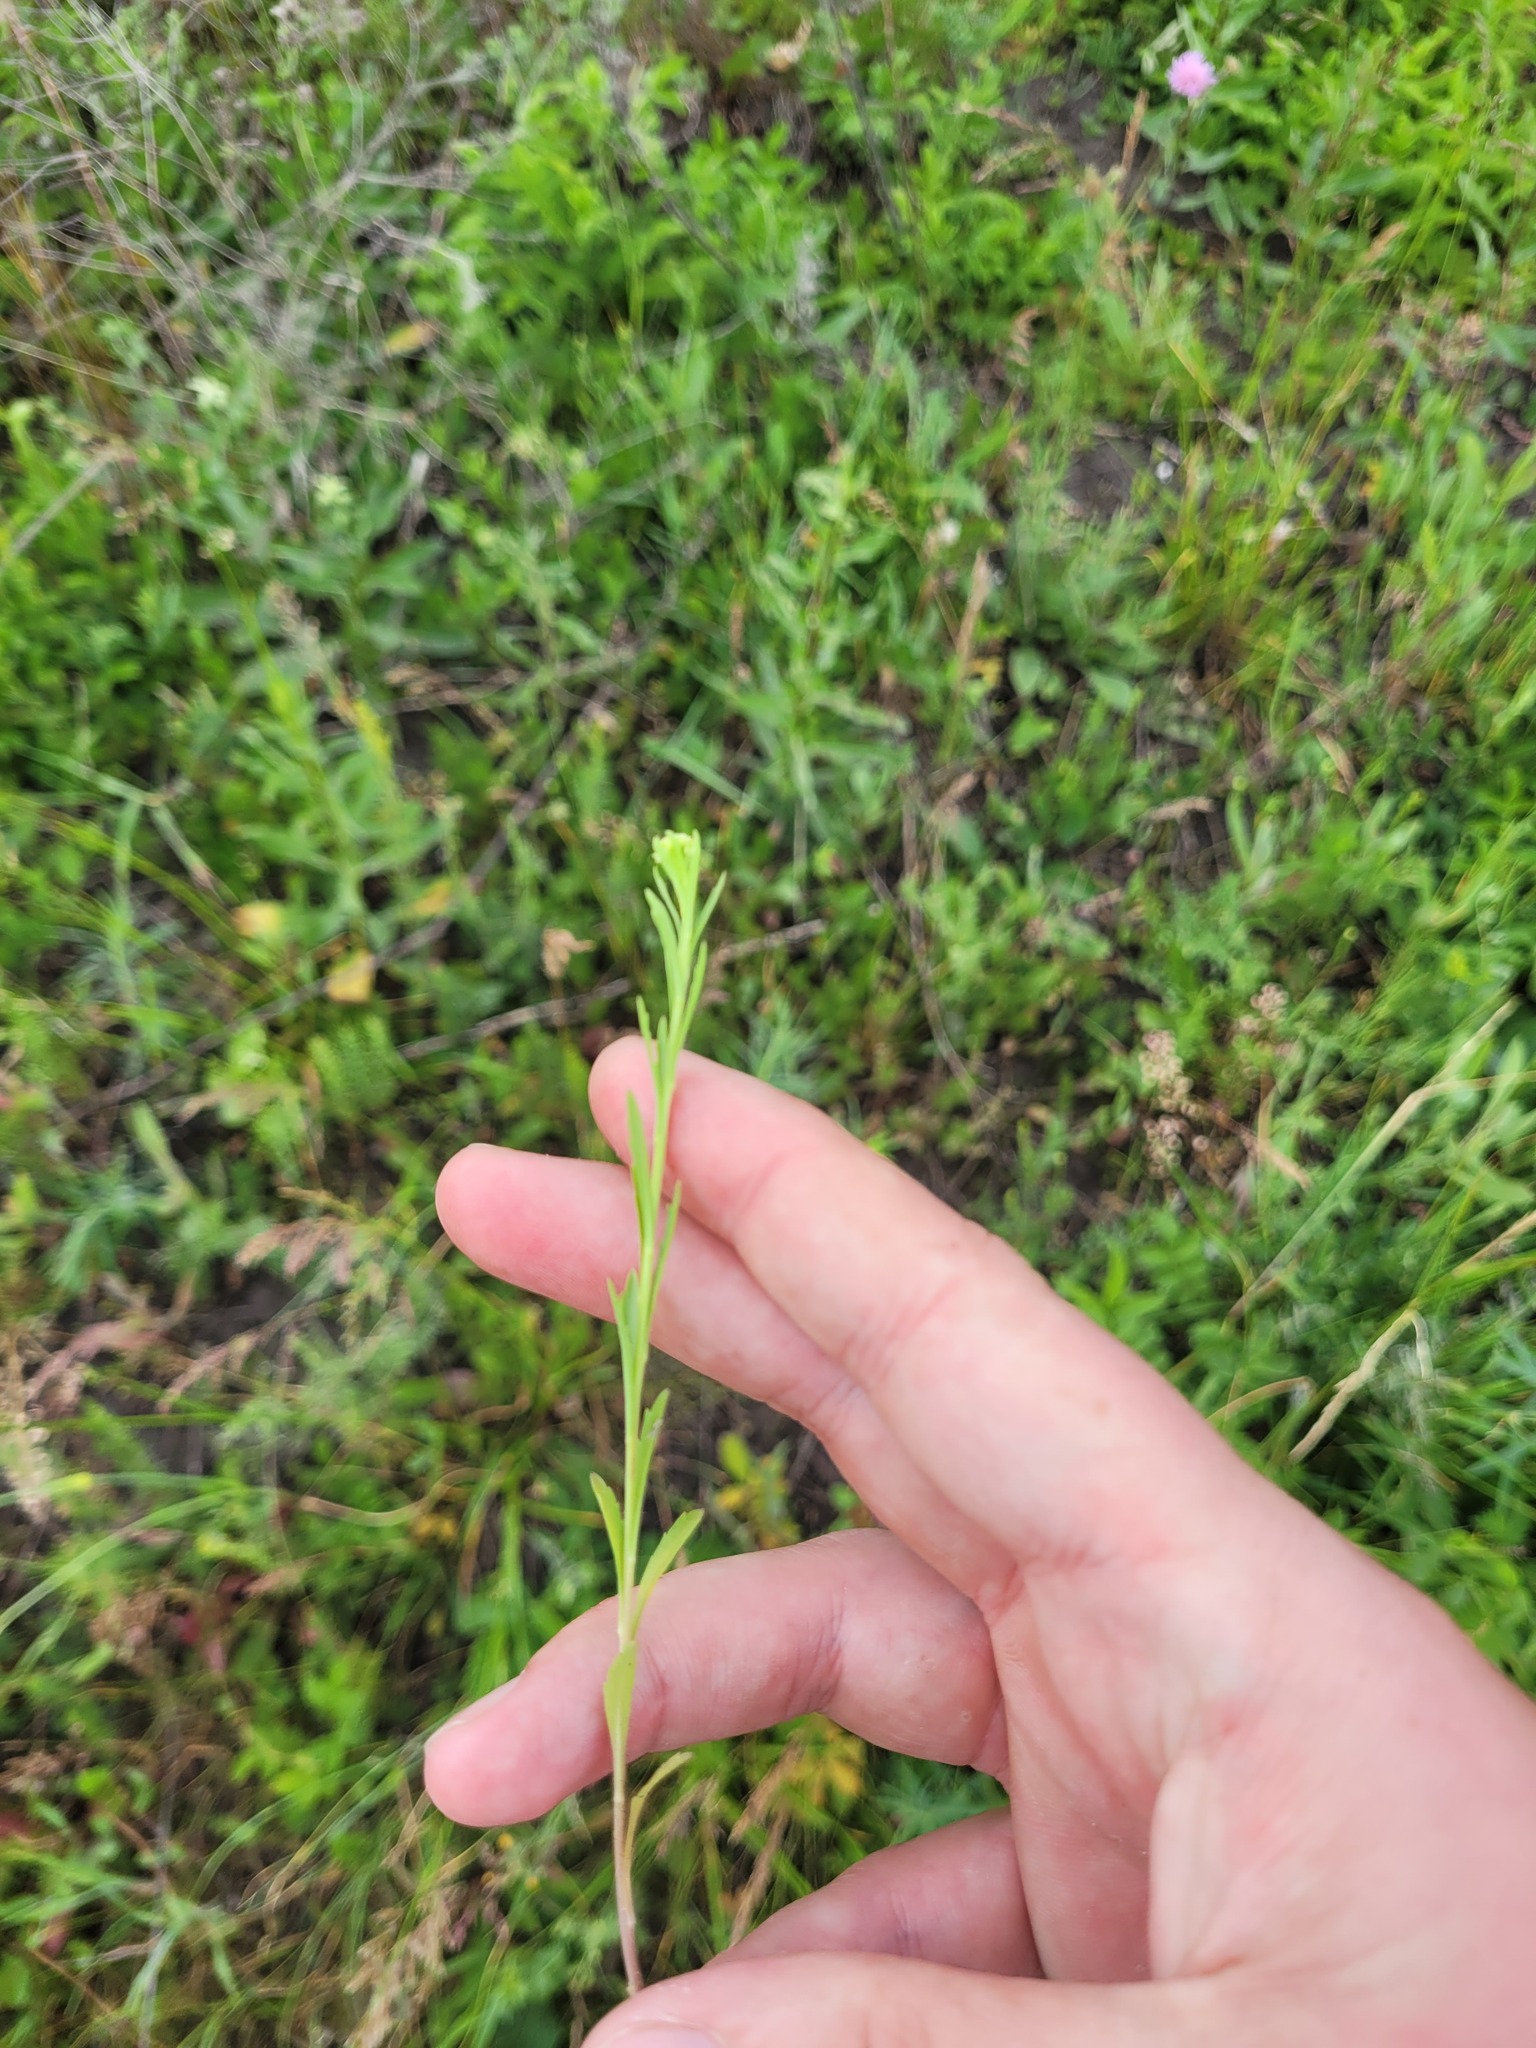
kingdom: Plantae
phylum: Tracheophyta
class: Magnoliopsida
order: Brassicales
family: Brassicaceae
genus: Lepidium
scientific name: Lepidium densiflorum
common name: Miner's pepperwort
